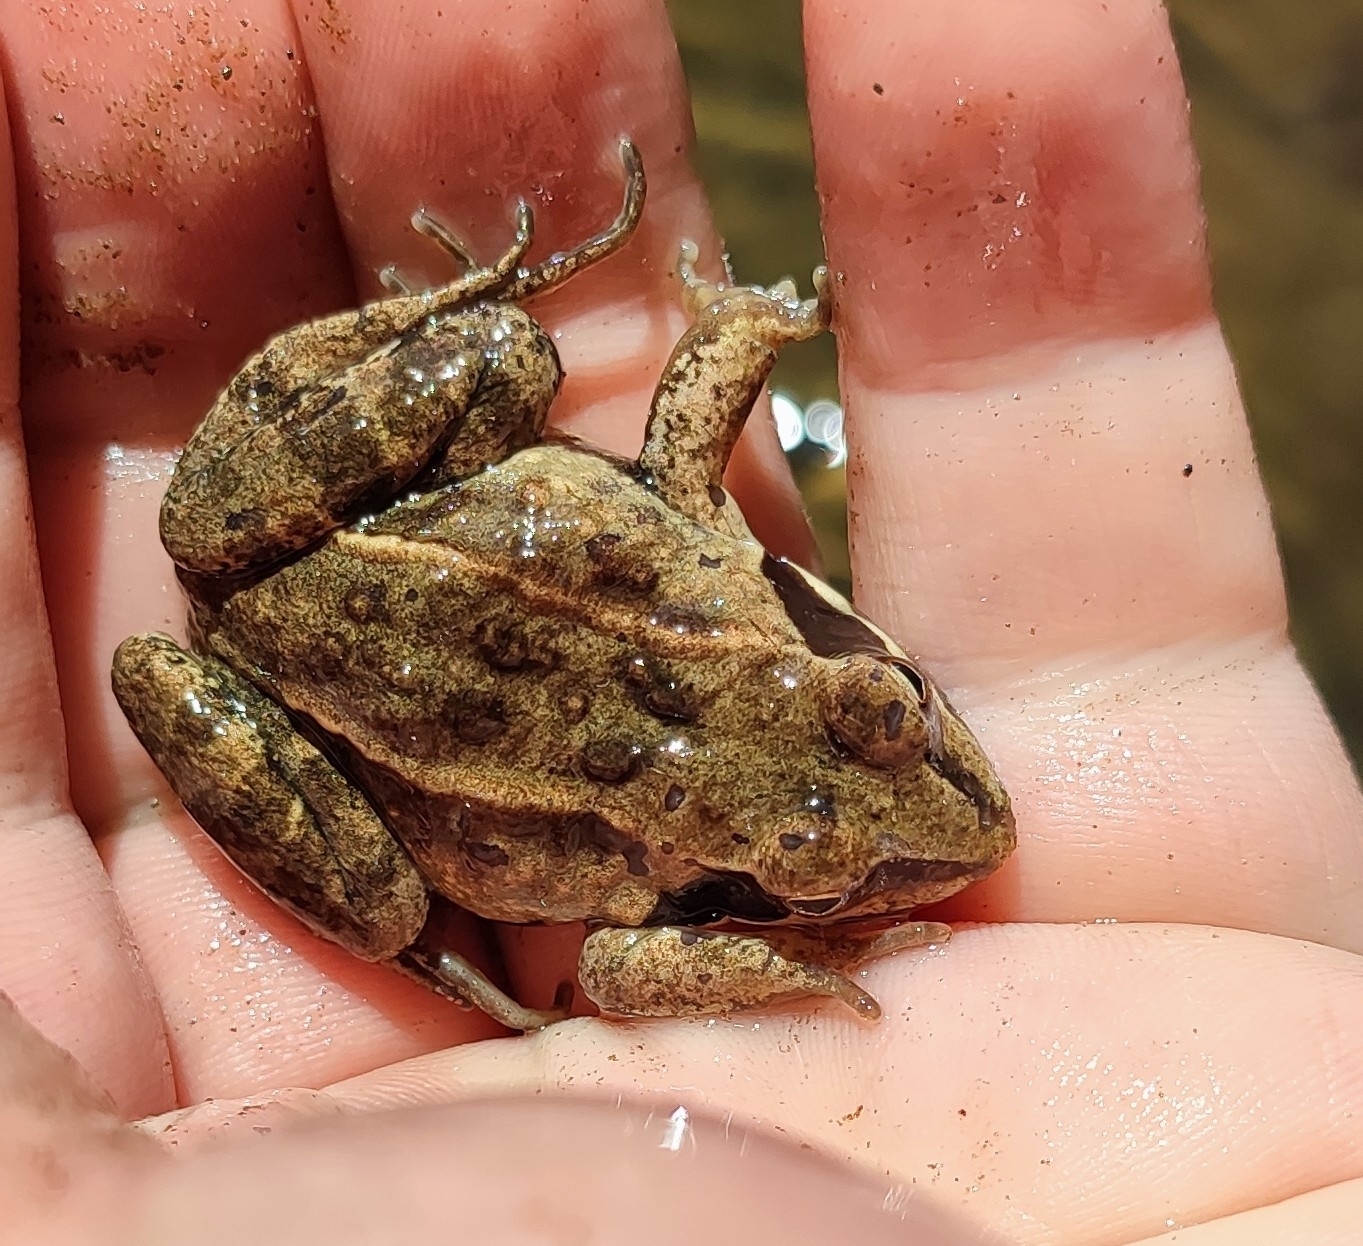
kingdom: Animalia
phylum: Chordata
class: Amphibia
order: Anura
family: Ranidae
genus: Rana
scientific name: Rana arvalis
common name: Moor frog
